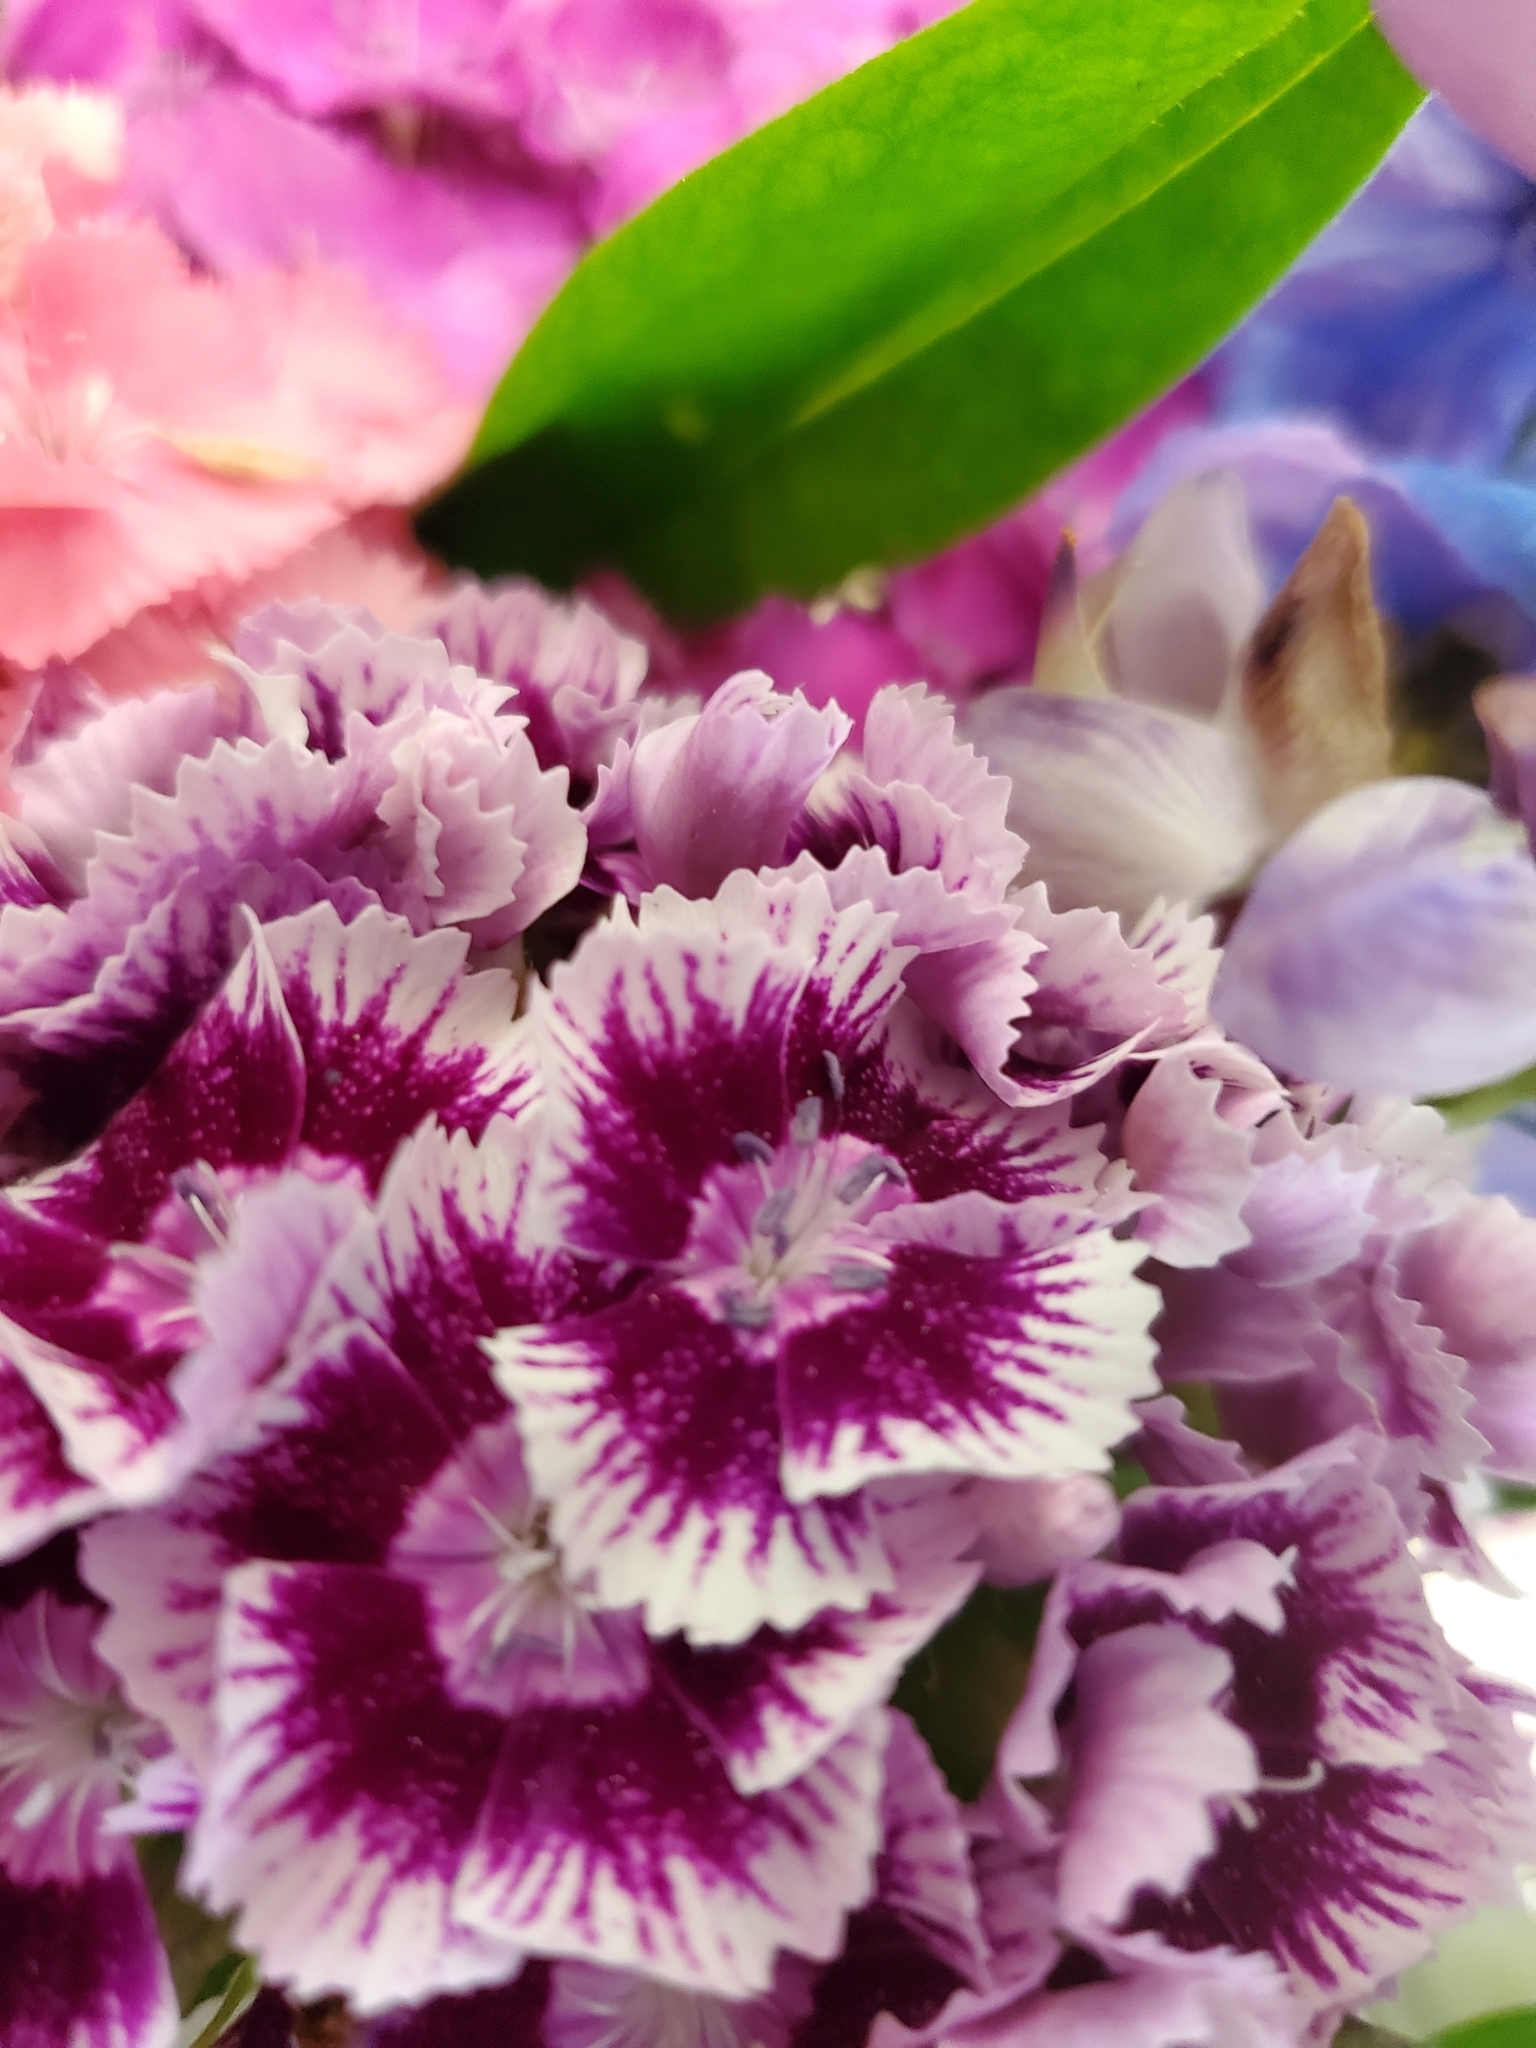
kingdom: Plantae
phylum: Tracheophyta
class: Magnoliopsida
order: Caryophyllales
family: Caryophyllaceae
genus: Dianthus
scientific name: Dianthus barbatus
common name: Sweet-william
